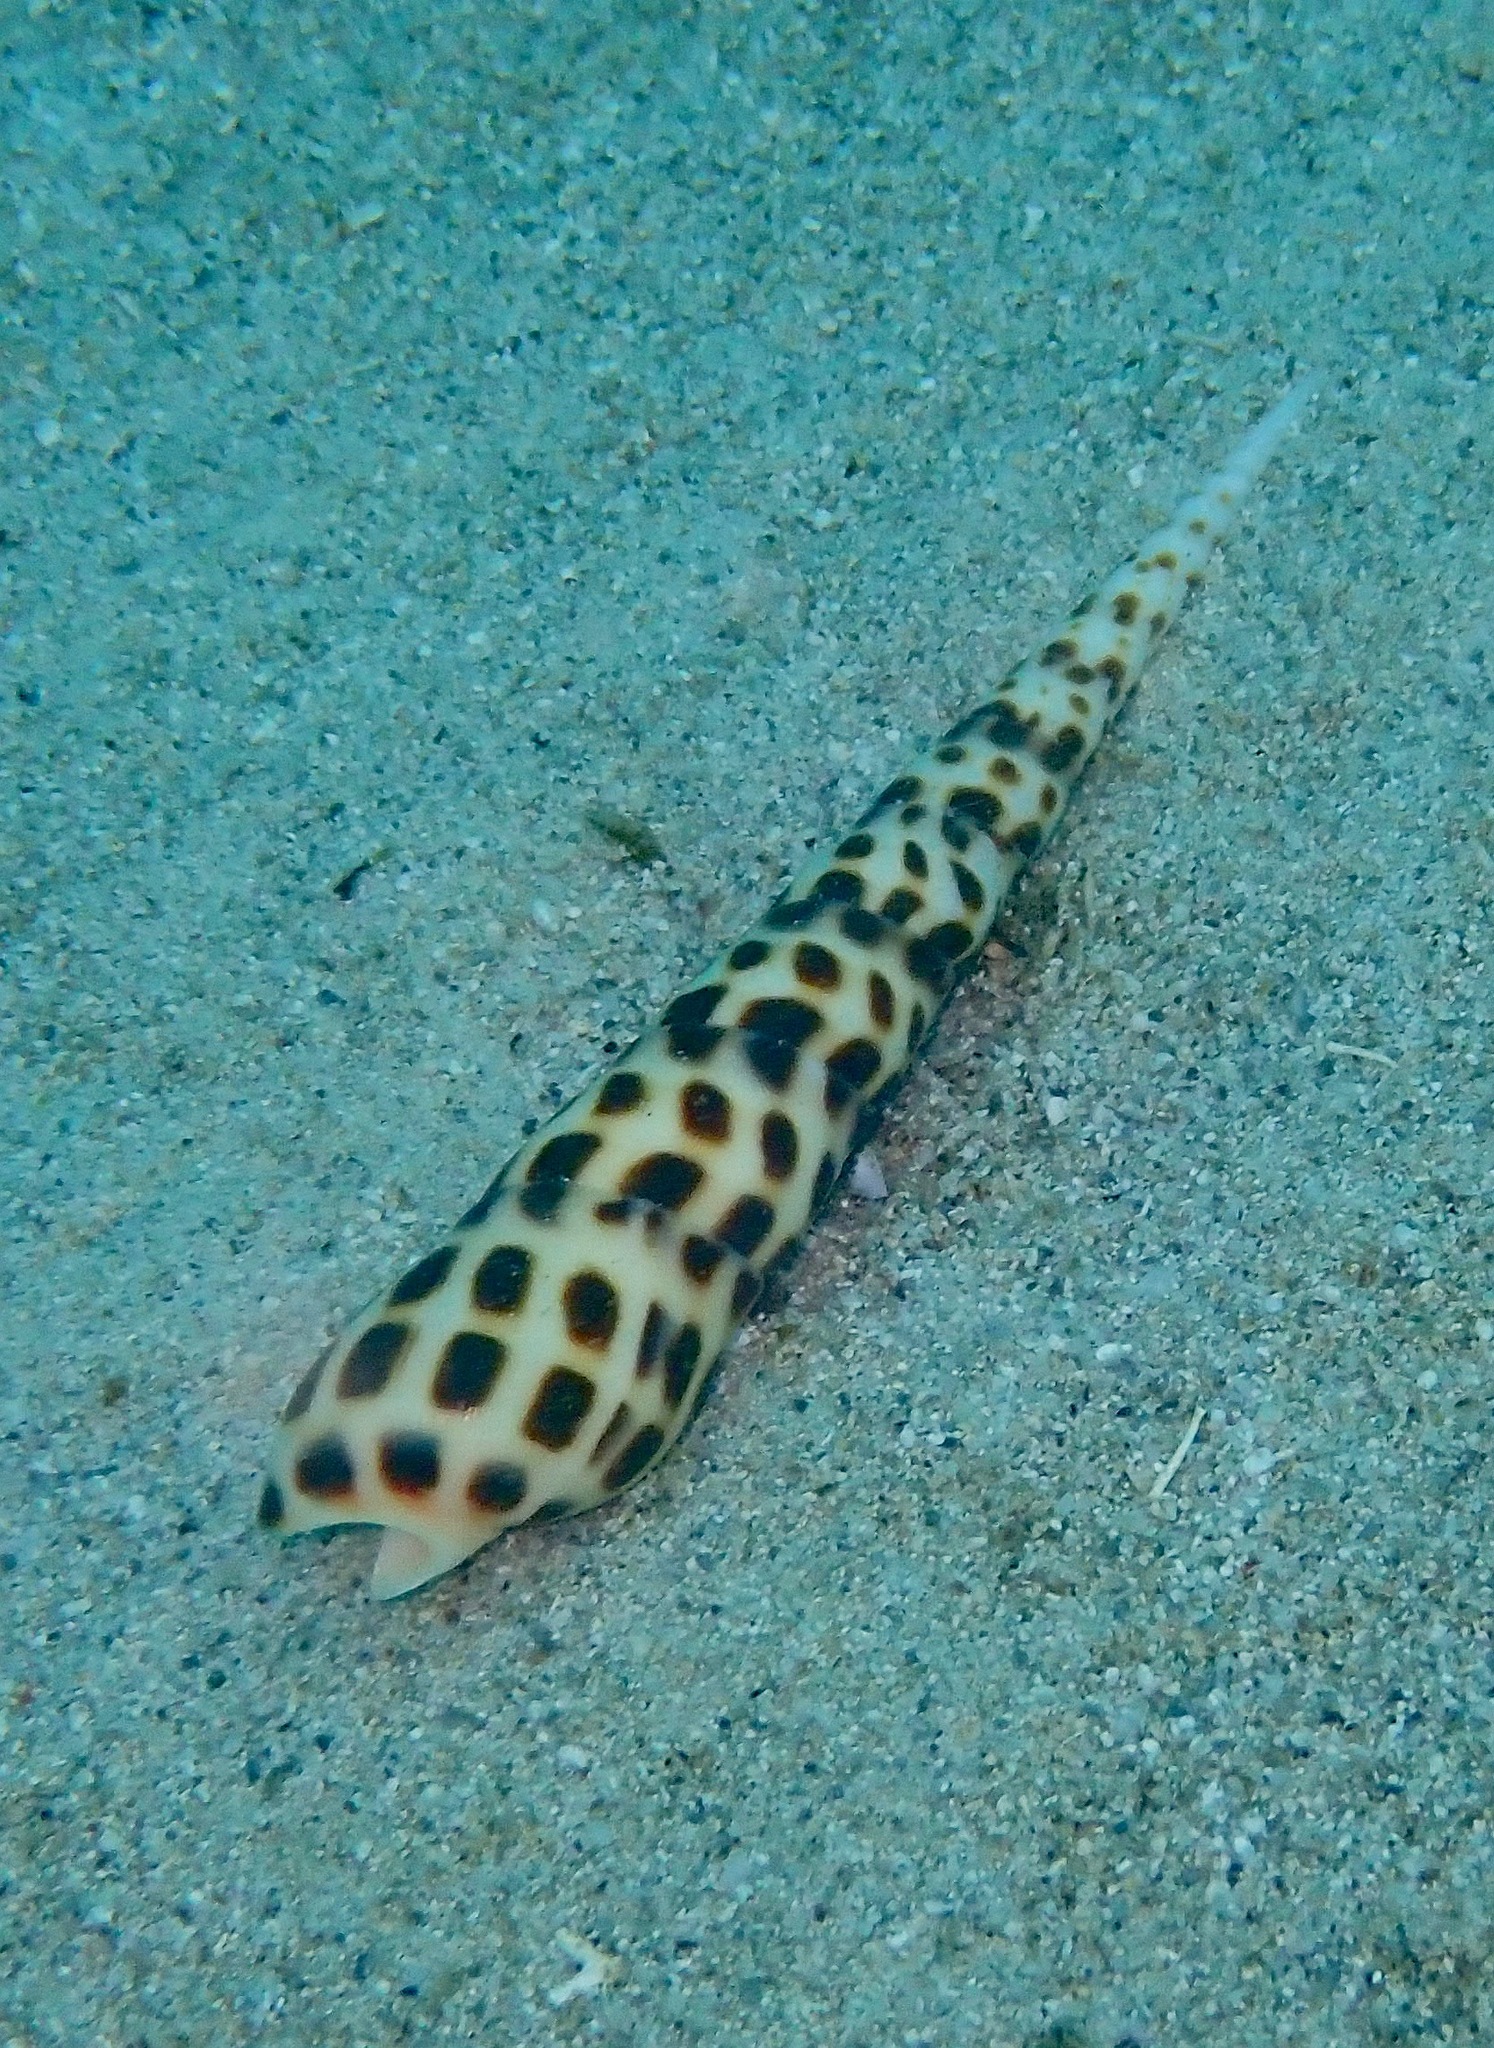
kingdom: Animalia
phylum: Mollusca
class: Gastropoda
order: Neogastropoda
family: Terebridae
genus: Oxymeris
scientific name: Oxymeris areolata
